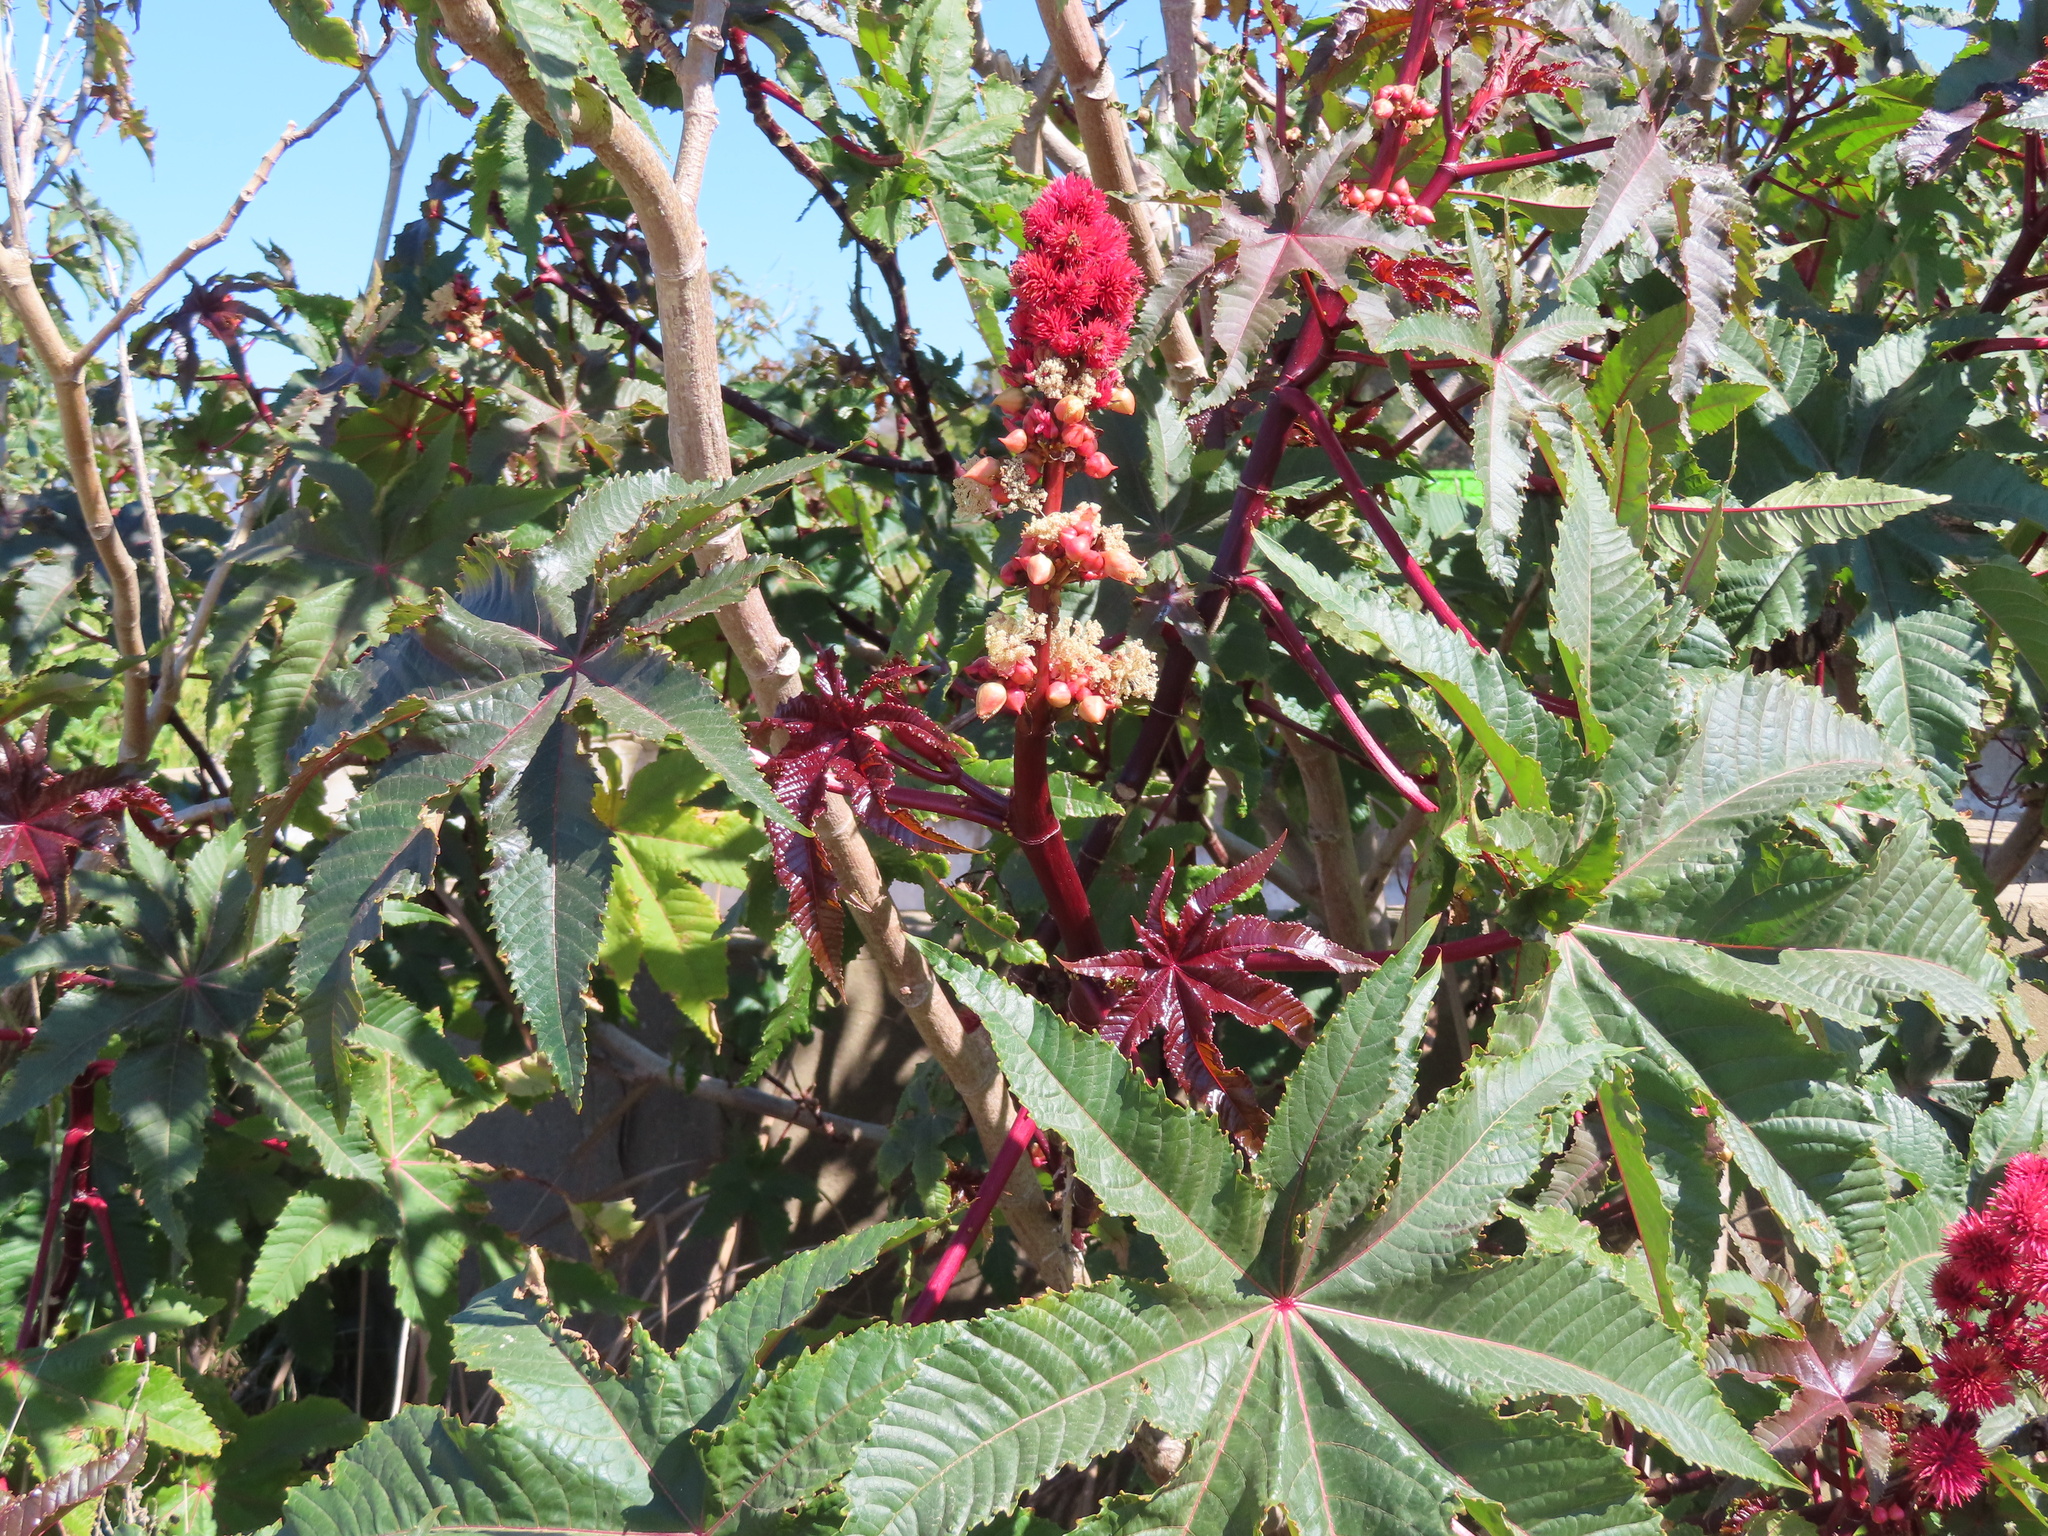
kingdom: Plantae
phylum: Tracheophyta
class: Magnoliopsida
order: Malpighiales
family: Euphorbiaceae
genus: Ricinus
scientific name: Ricinus communis
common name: Castor-oil-plant
